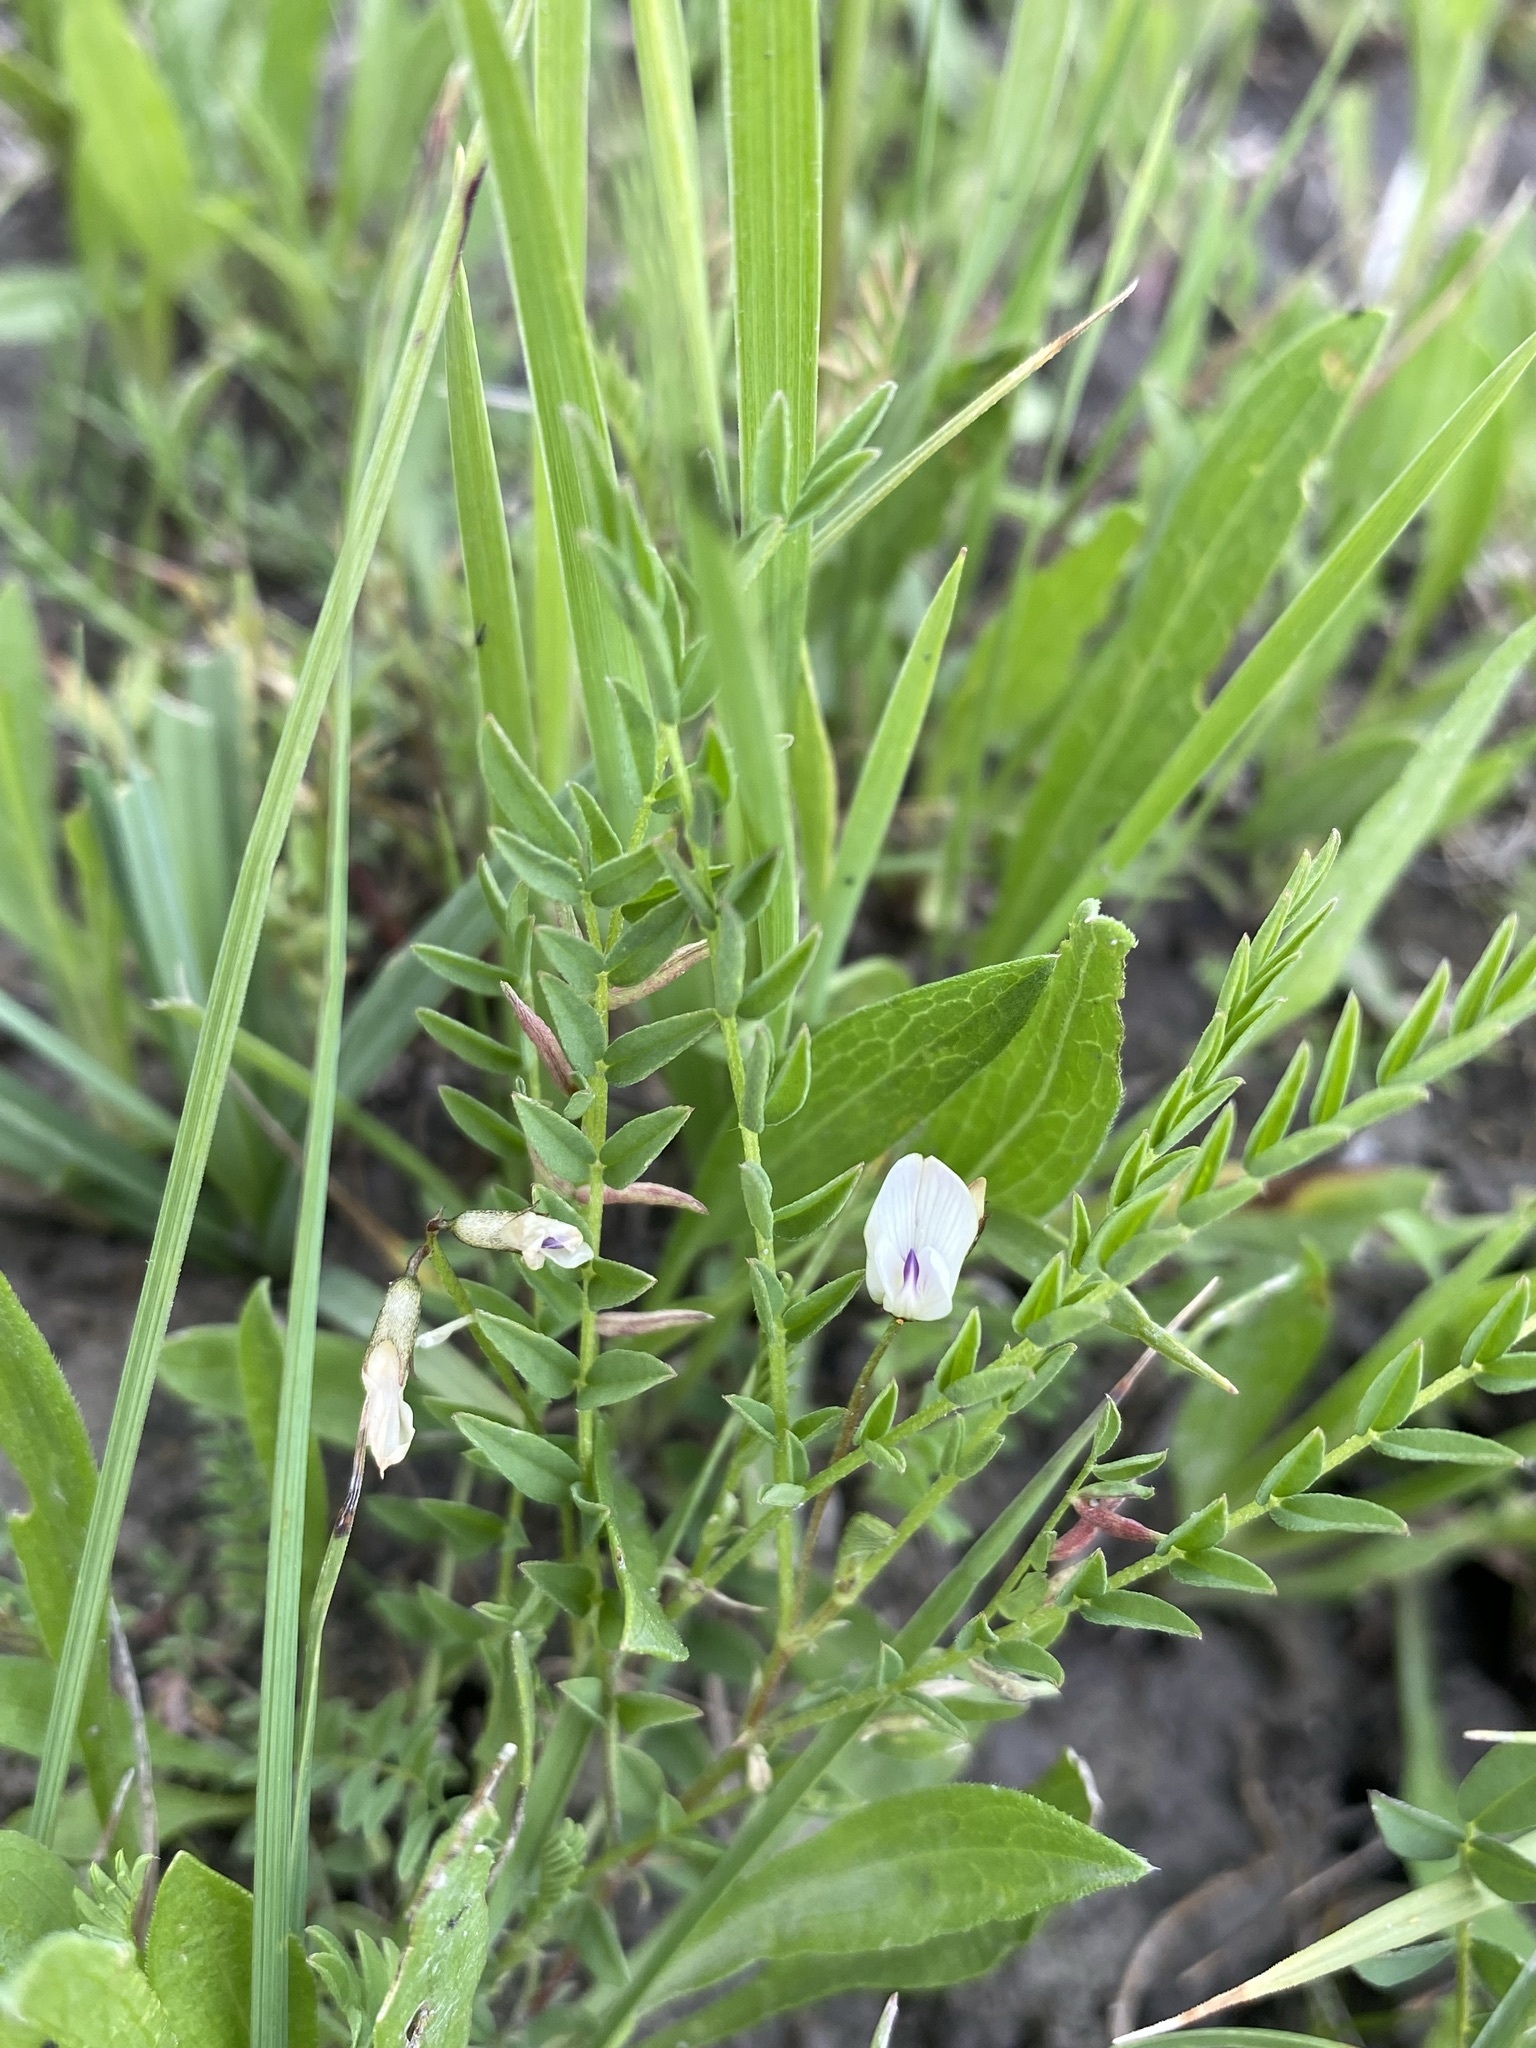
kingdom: Plantae
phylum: Tracheophyta
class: Magnoliopsida
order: Fabales
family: Fabaceae
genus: Astragalus
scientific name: Astragalus miser
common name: Timber milkvetch
